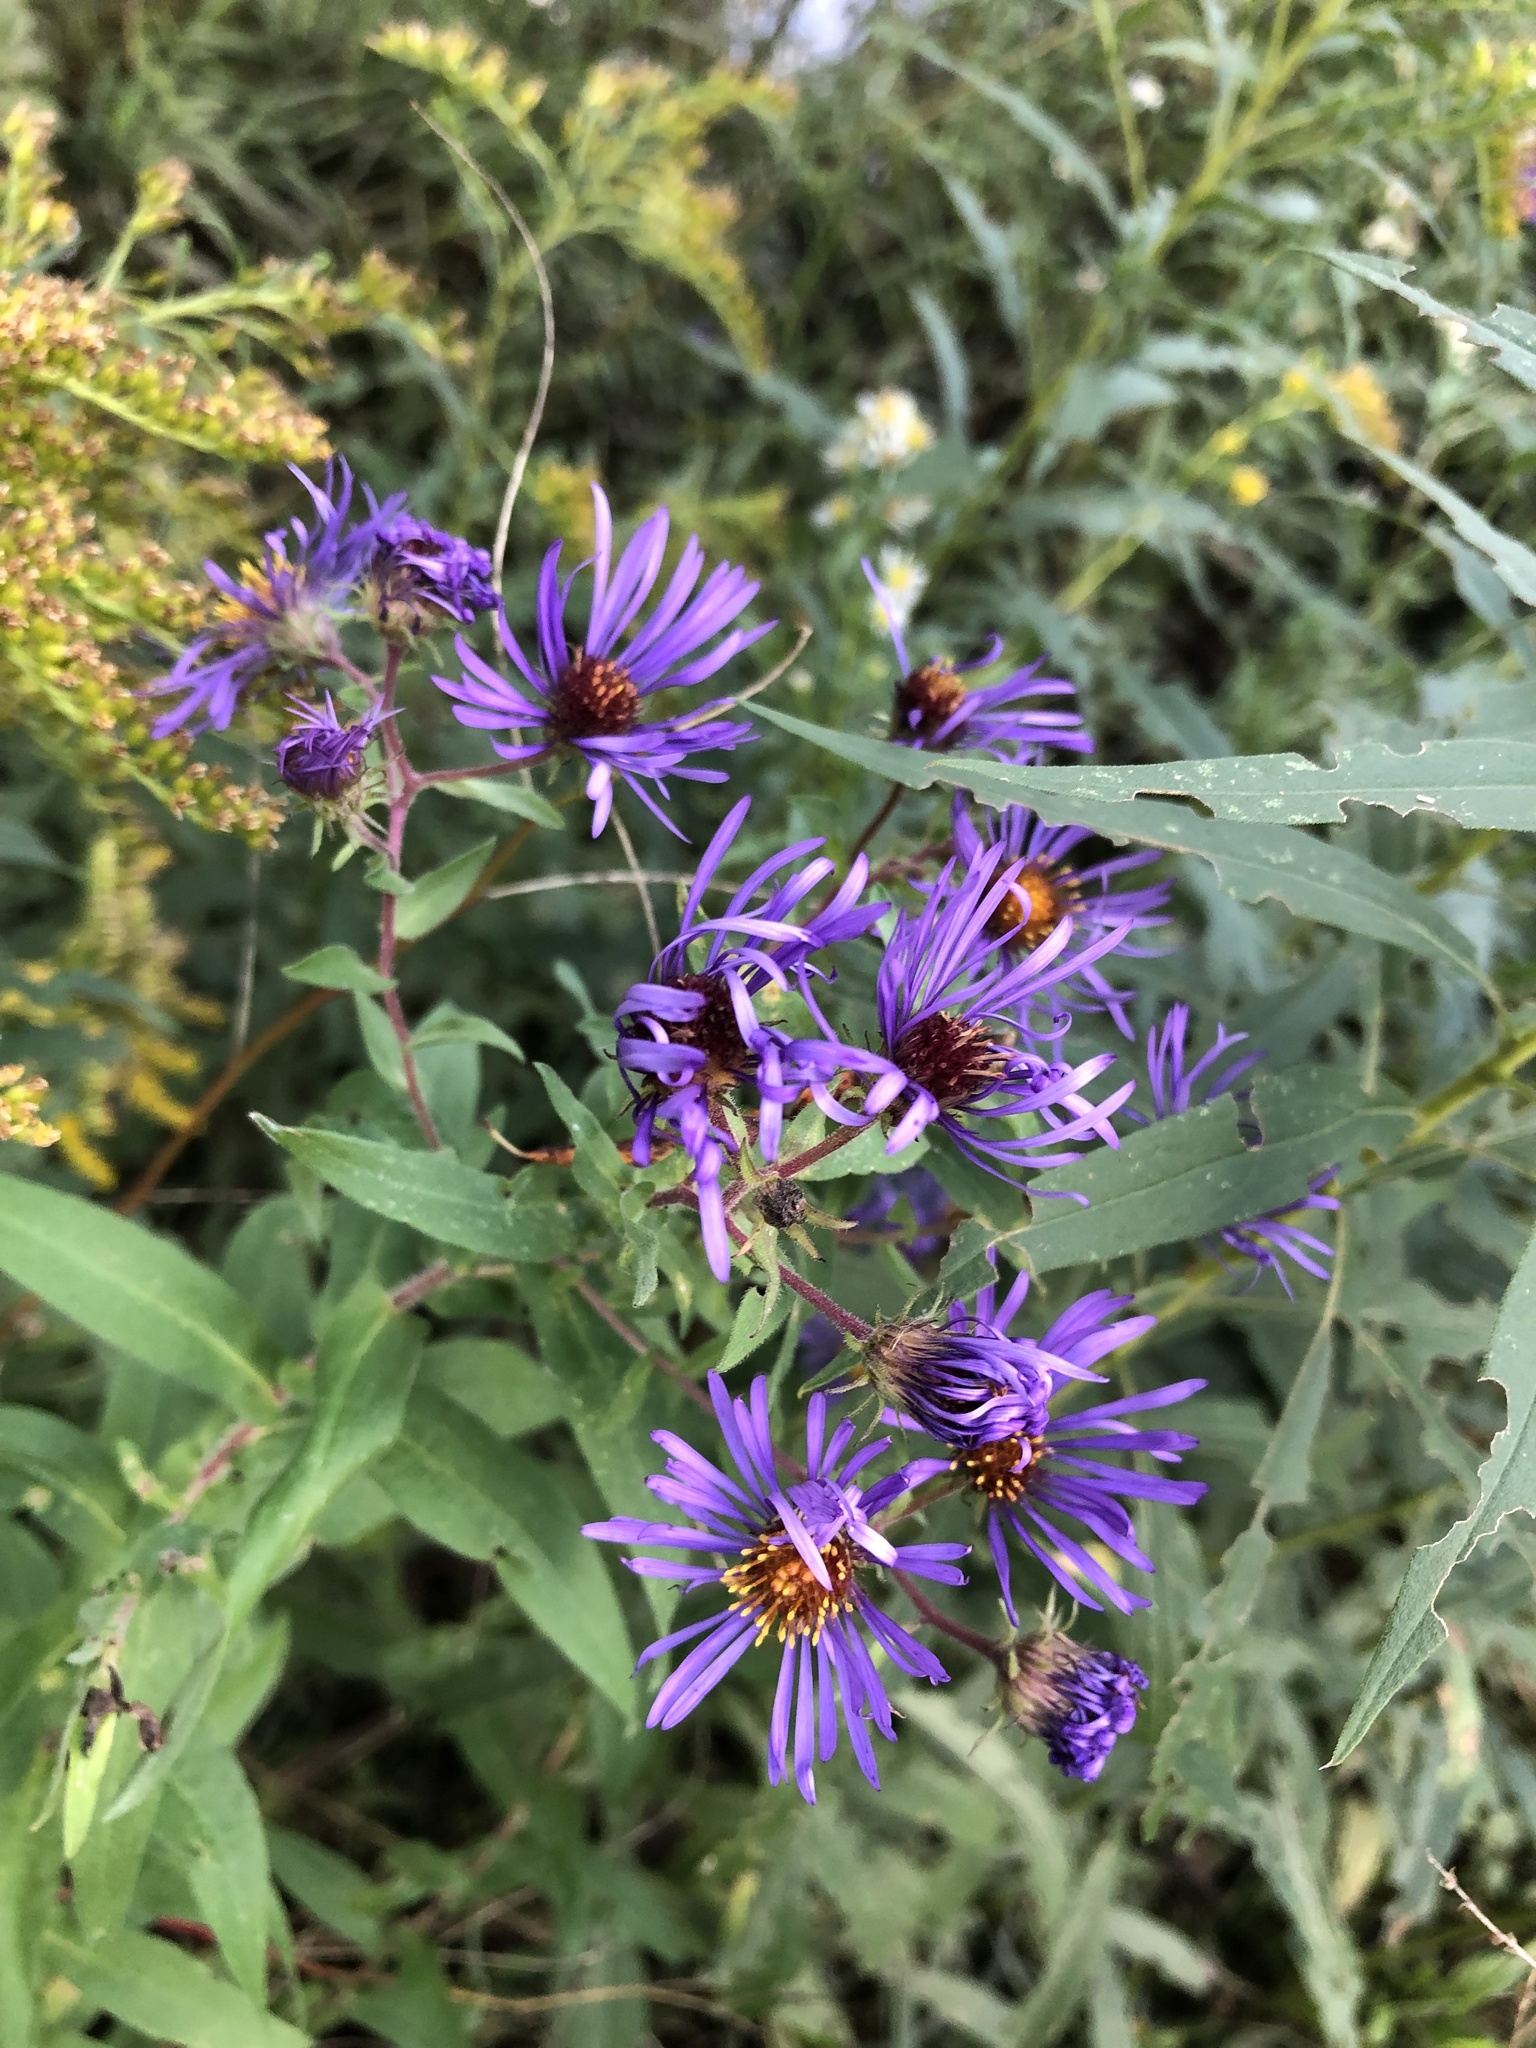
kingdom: Plantae
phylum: Tracheophyta
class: Magnoliopsida
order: Asterales
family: Asteraceae
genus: Symphyotrichum
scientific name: Symphyotrichum novae-angliae
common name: Michaelmas daisy
